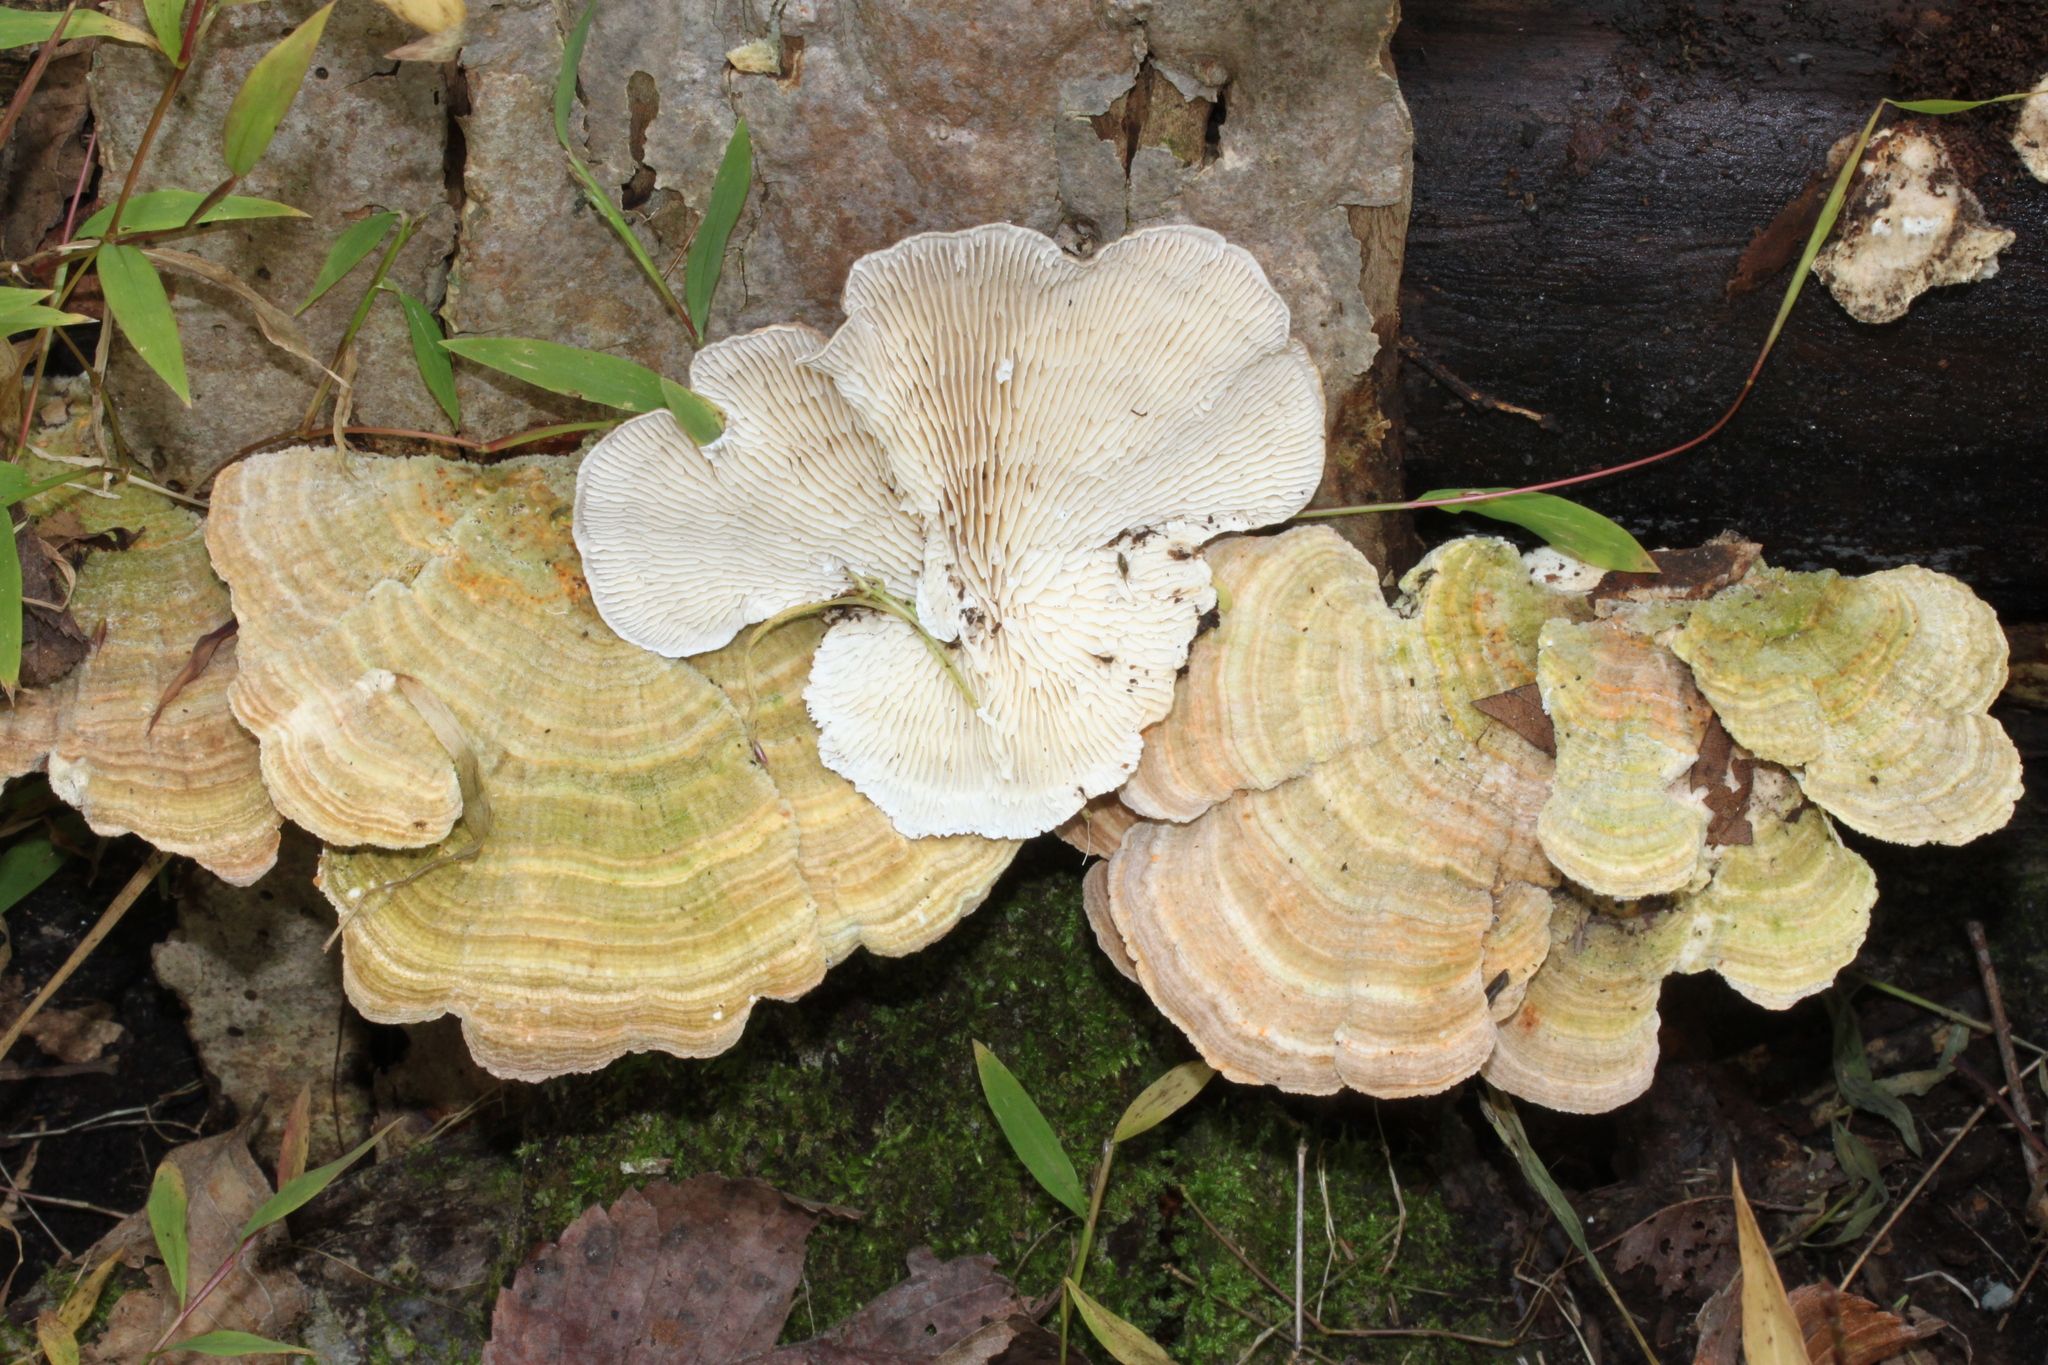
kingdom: Fungi
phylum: Basidiomycota
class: Agaricomycetes
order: Polyporales
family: Polyporaceae
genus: Lenzites
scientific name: Lenzites betulinus
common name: Birch mazegill
